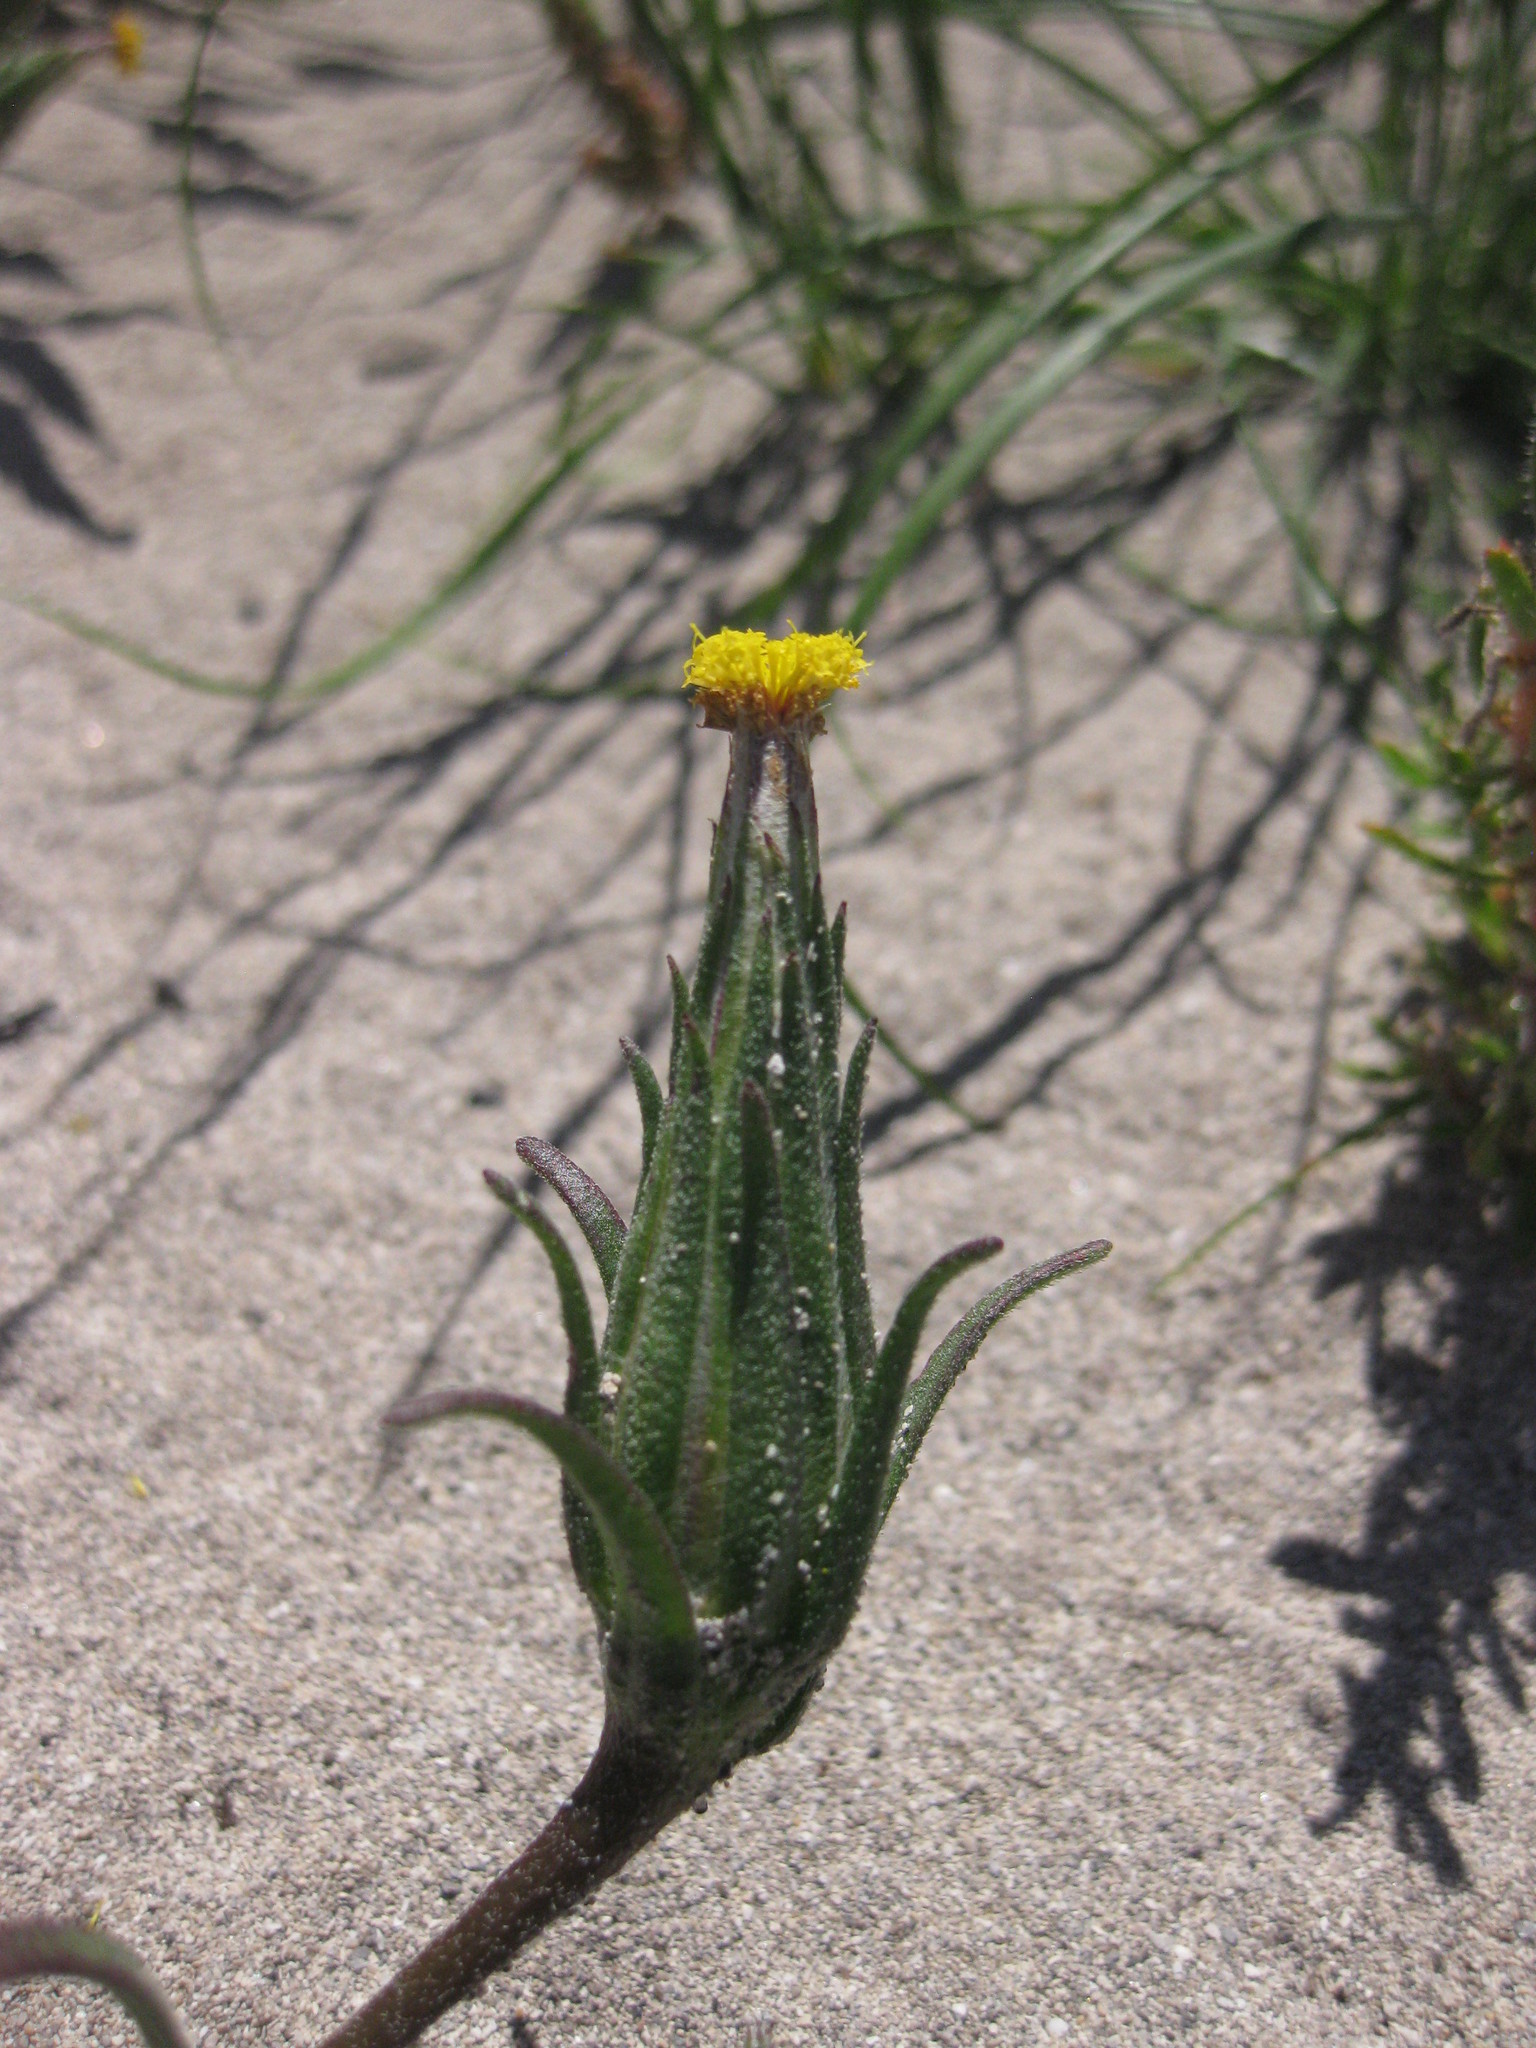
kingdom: Plantae
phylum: Tracheophyta
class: Magnoliopsida
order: Asterales
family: Asteraceae
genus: Podotheca
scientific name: Podotheca angustifolia
